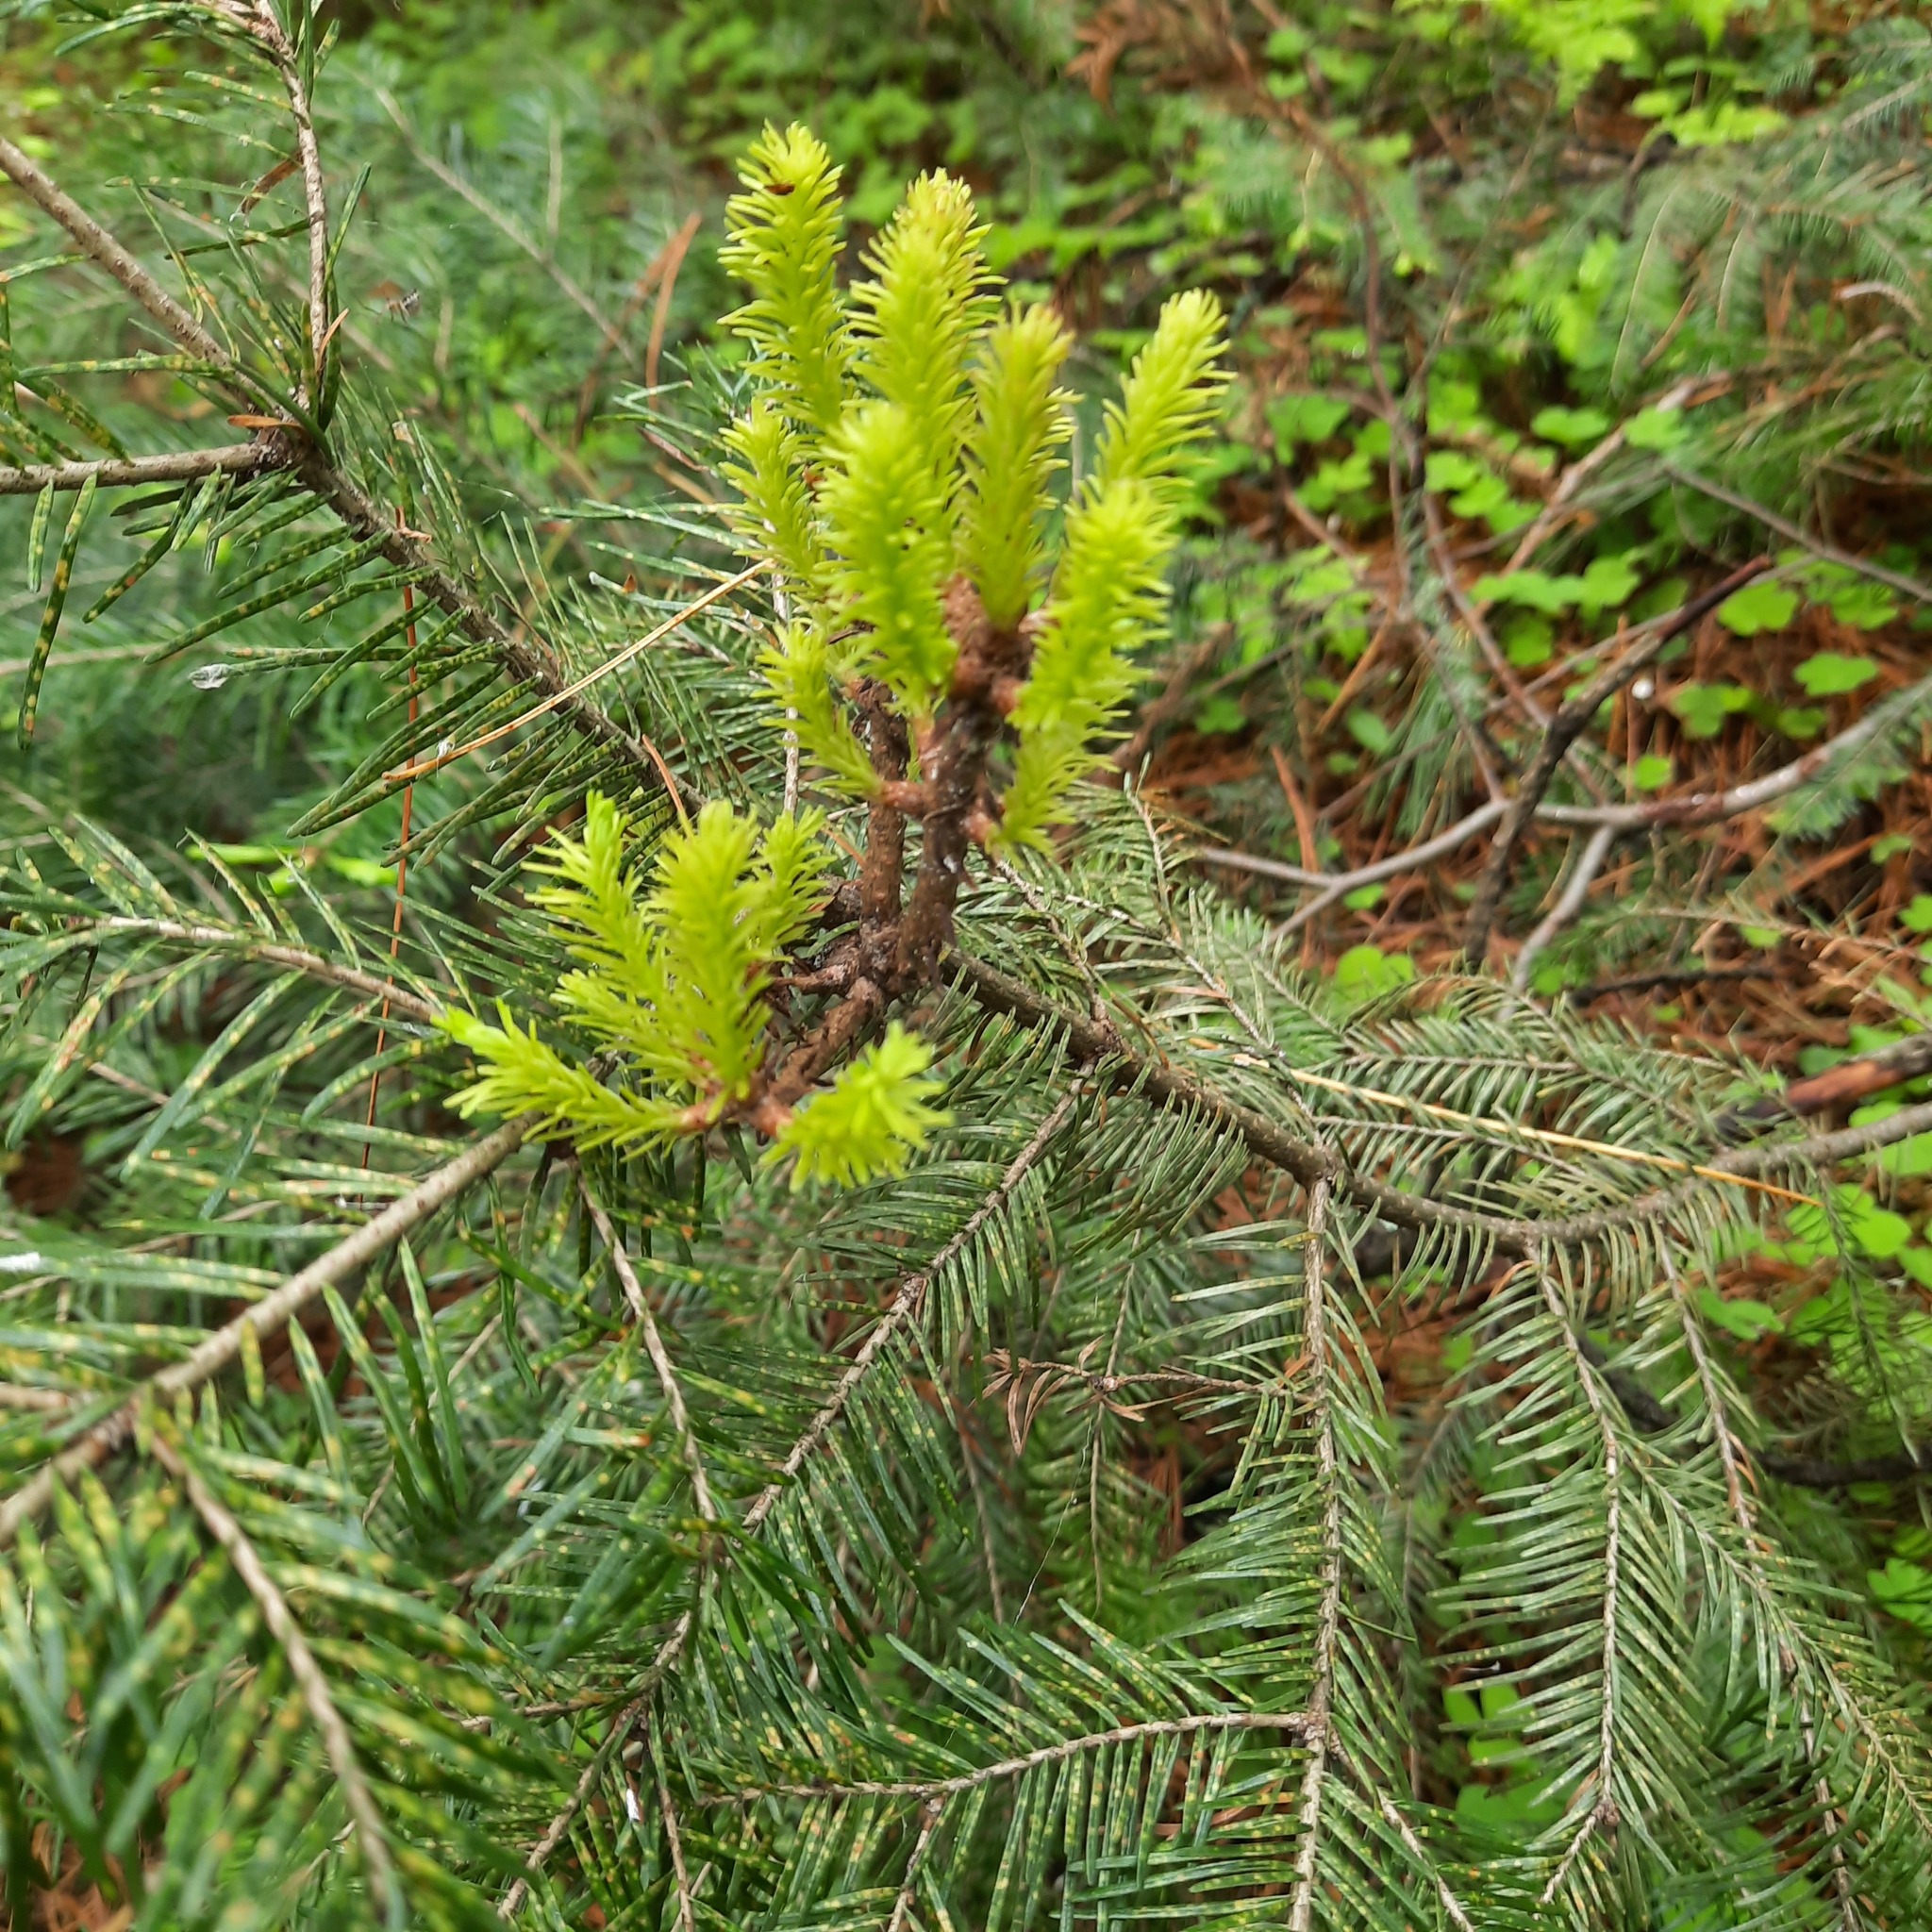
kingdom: Fungi
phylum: Basidiomycota
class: Pucciniomycetes
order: Pucciniales
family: Pucciniastraceae
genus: Melampsorella
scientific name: Melampsorella elatina
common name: Fir broom rust
